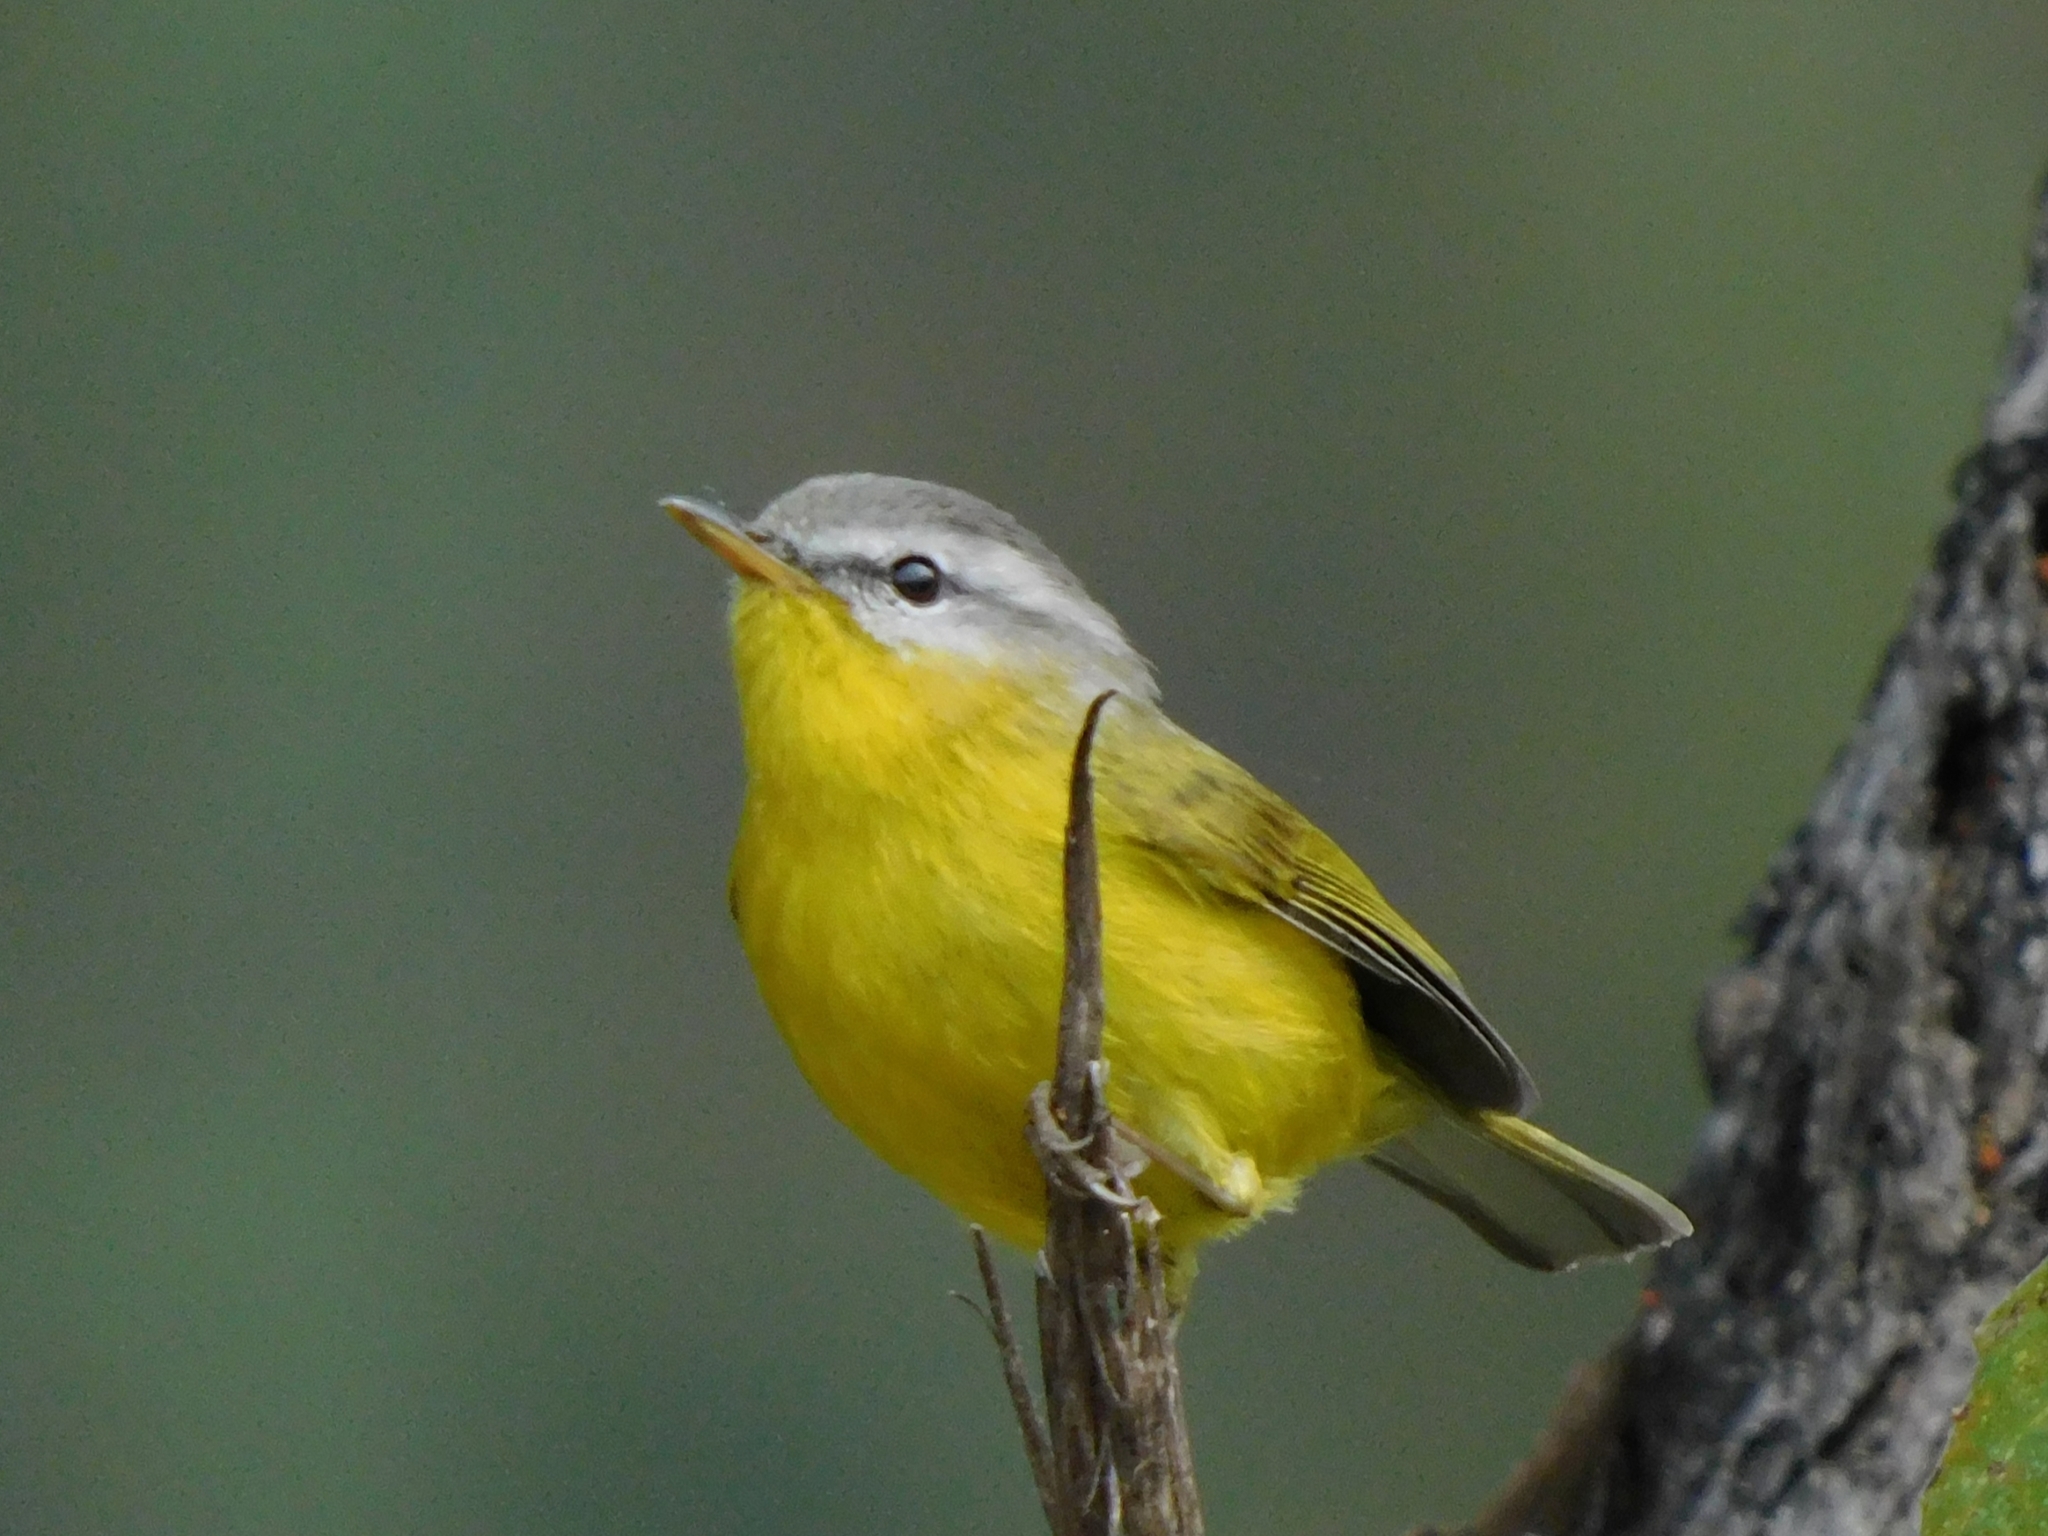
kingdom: Animalia
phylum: Chordata
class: Aves
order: Passeriformes
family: Phylloscopidae
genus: Phylloscopus
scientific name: Phylloscopus xanthoschistos
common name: Grey-hooded warbler
